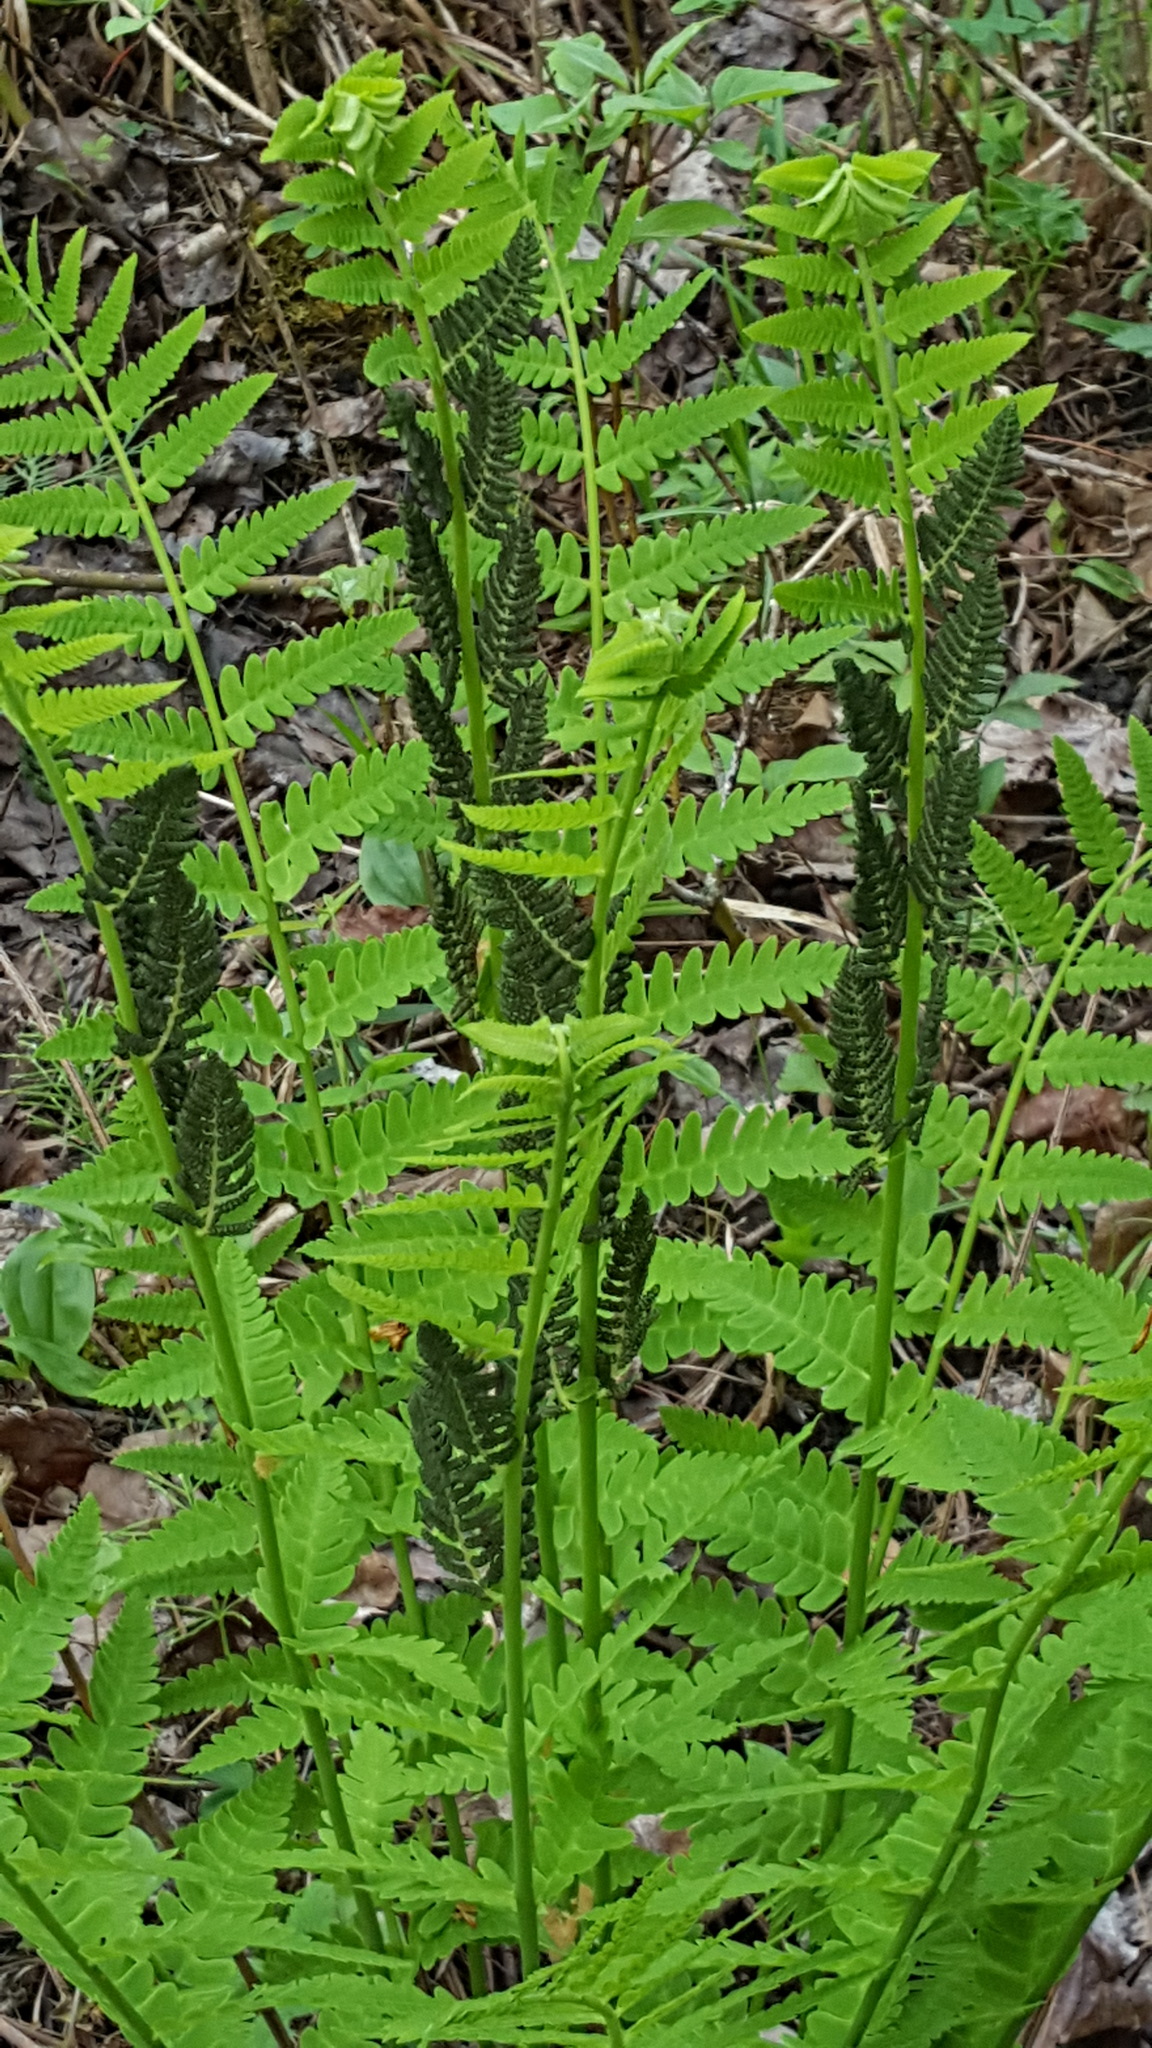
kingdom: Plantae
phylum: Tracheophyta
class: Polypodiopsida
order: Osmundales
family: Osmundaceae
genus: Claytosmunda
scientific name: Claytosmunda claytoniana
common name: Clayton's fern
